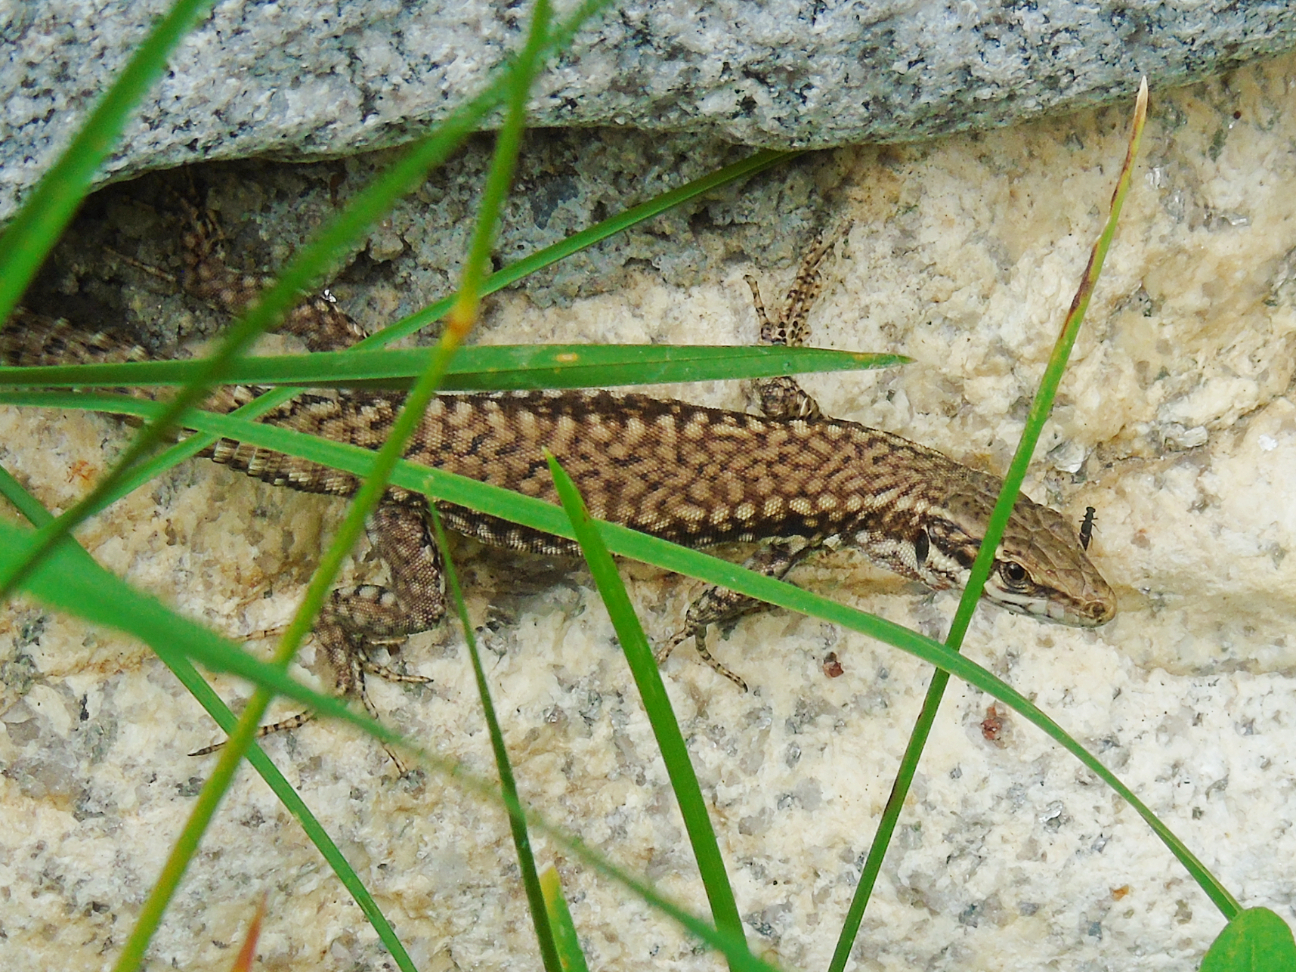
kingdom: Animalia
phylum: Chordata
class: Squamata
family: Lacertidae
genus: Podarcis
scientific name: Podarcis muralis
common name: Common wall lizard
